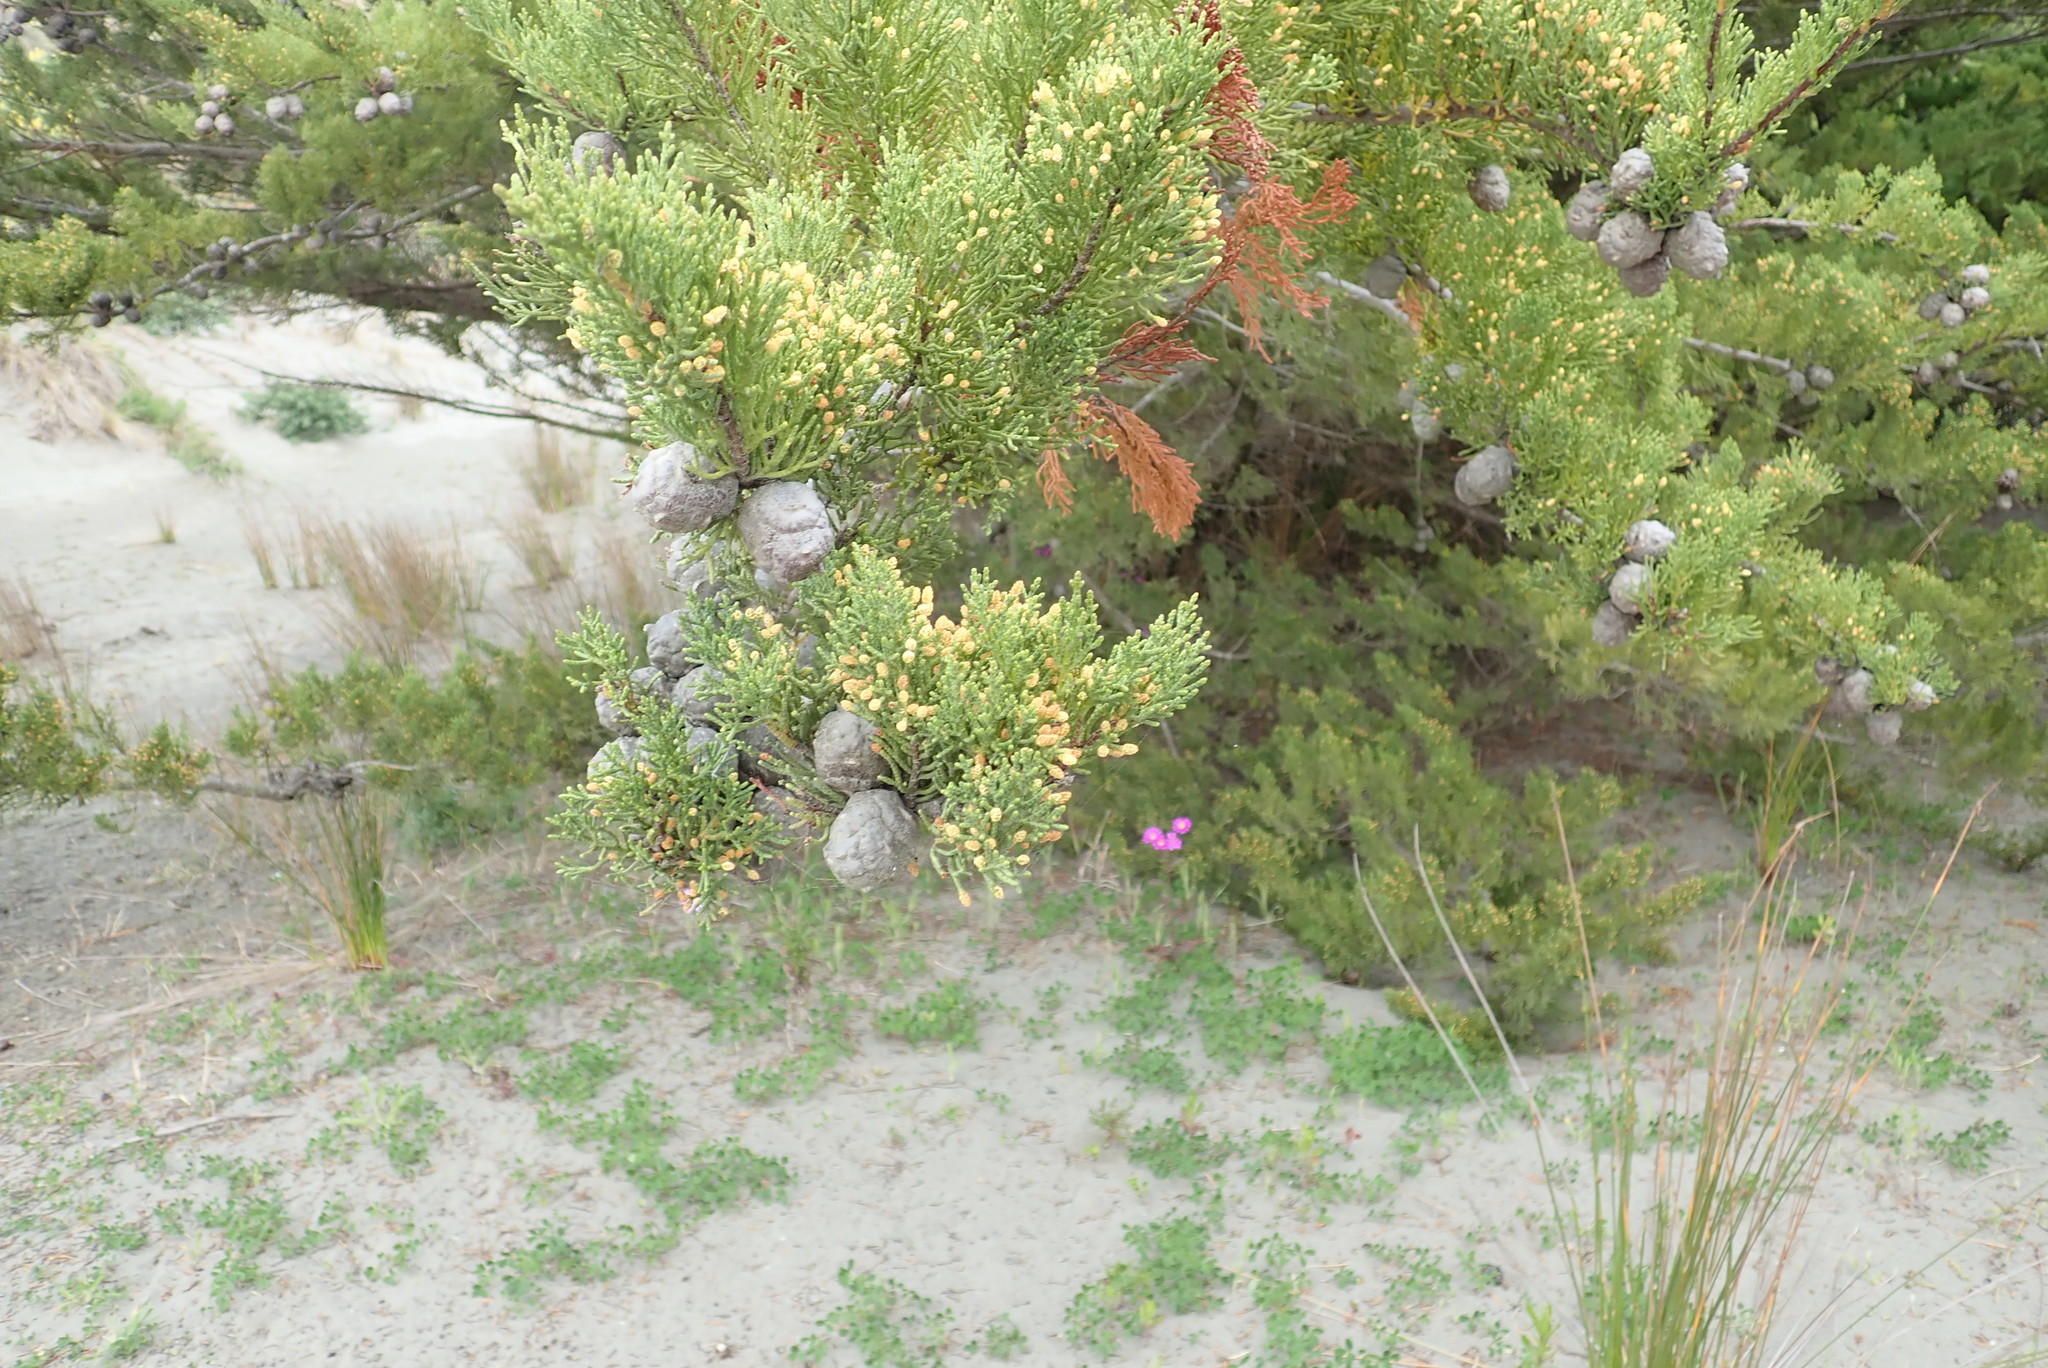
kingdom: Plantae
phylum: Tracheophyta
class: Pinopsida
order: Pinales
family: Cupressaceae
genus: Cupressus
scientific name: Cupressus macrocarpa
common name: Monterey cypress
